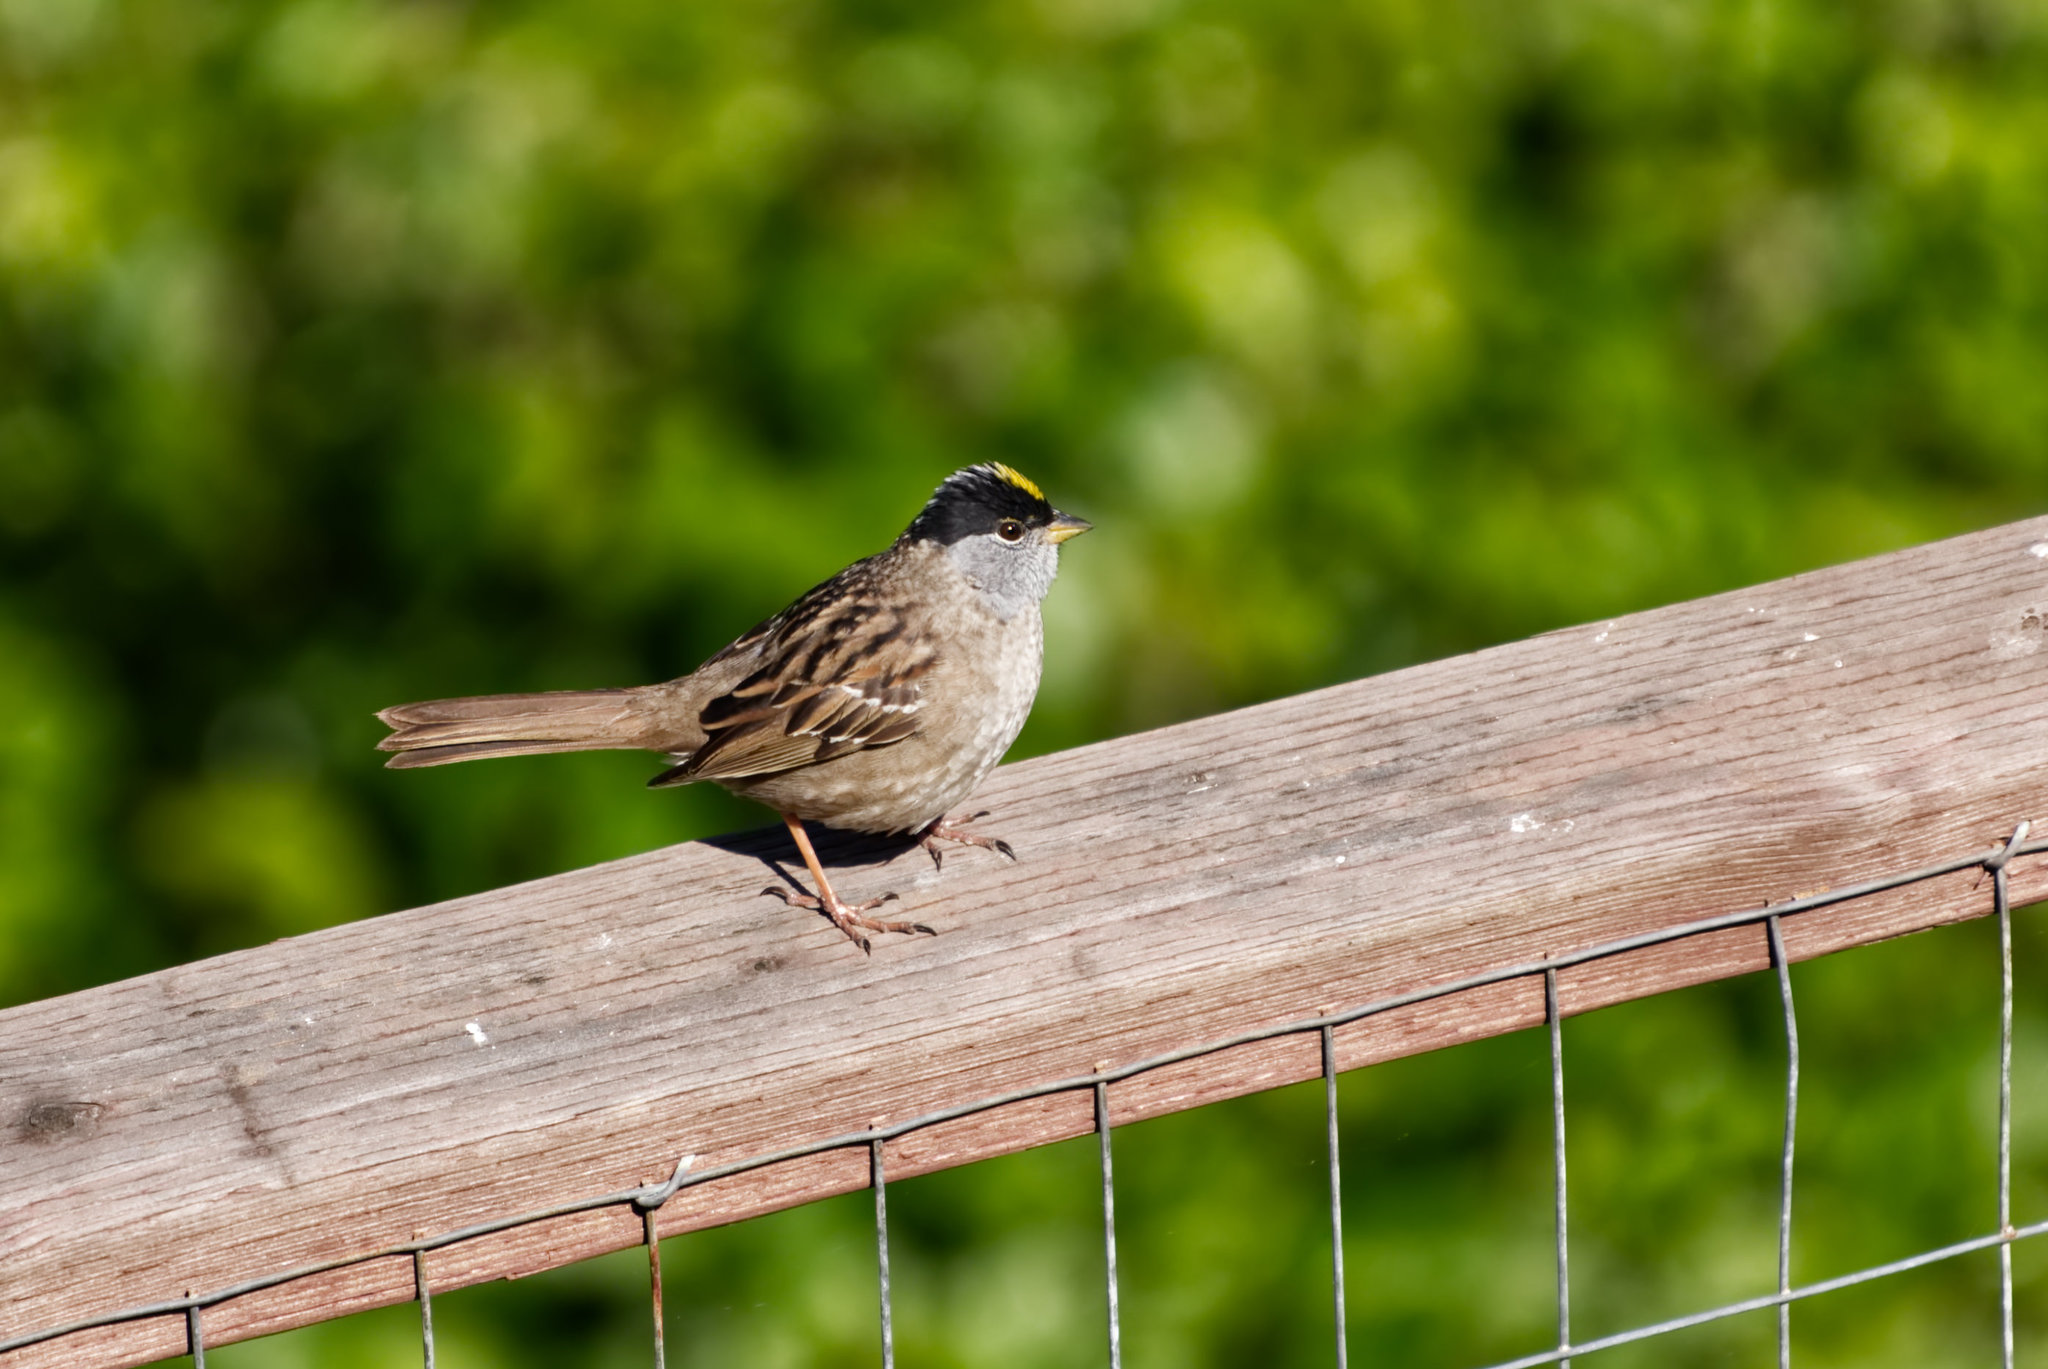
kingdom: Animalia
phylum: Chordata
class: Aves
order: Passeriformes
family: Passerellidae
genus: Zonotrichia
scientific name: Zonotrichia atricapilla
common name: Golden-crowned sparrow
